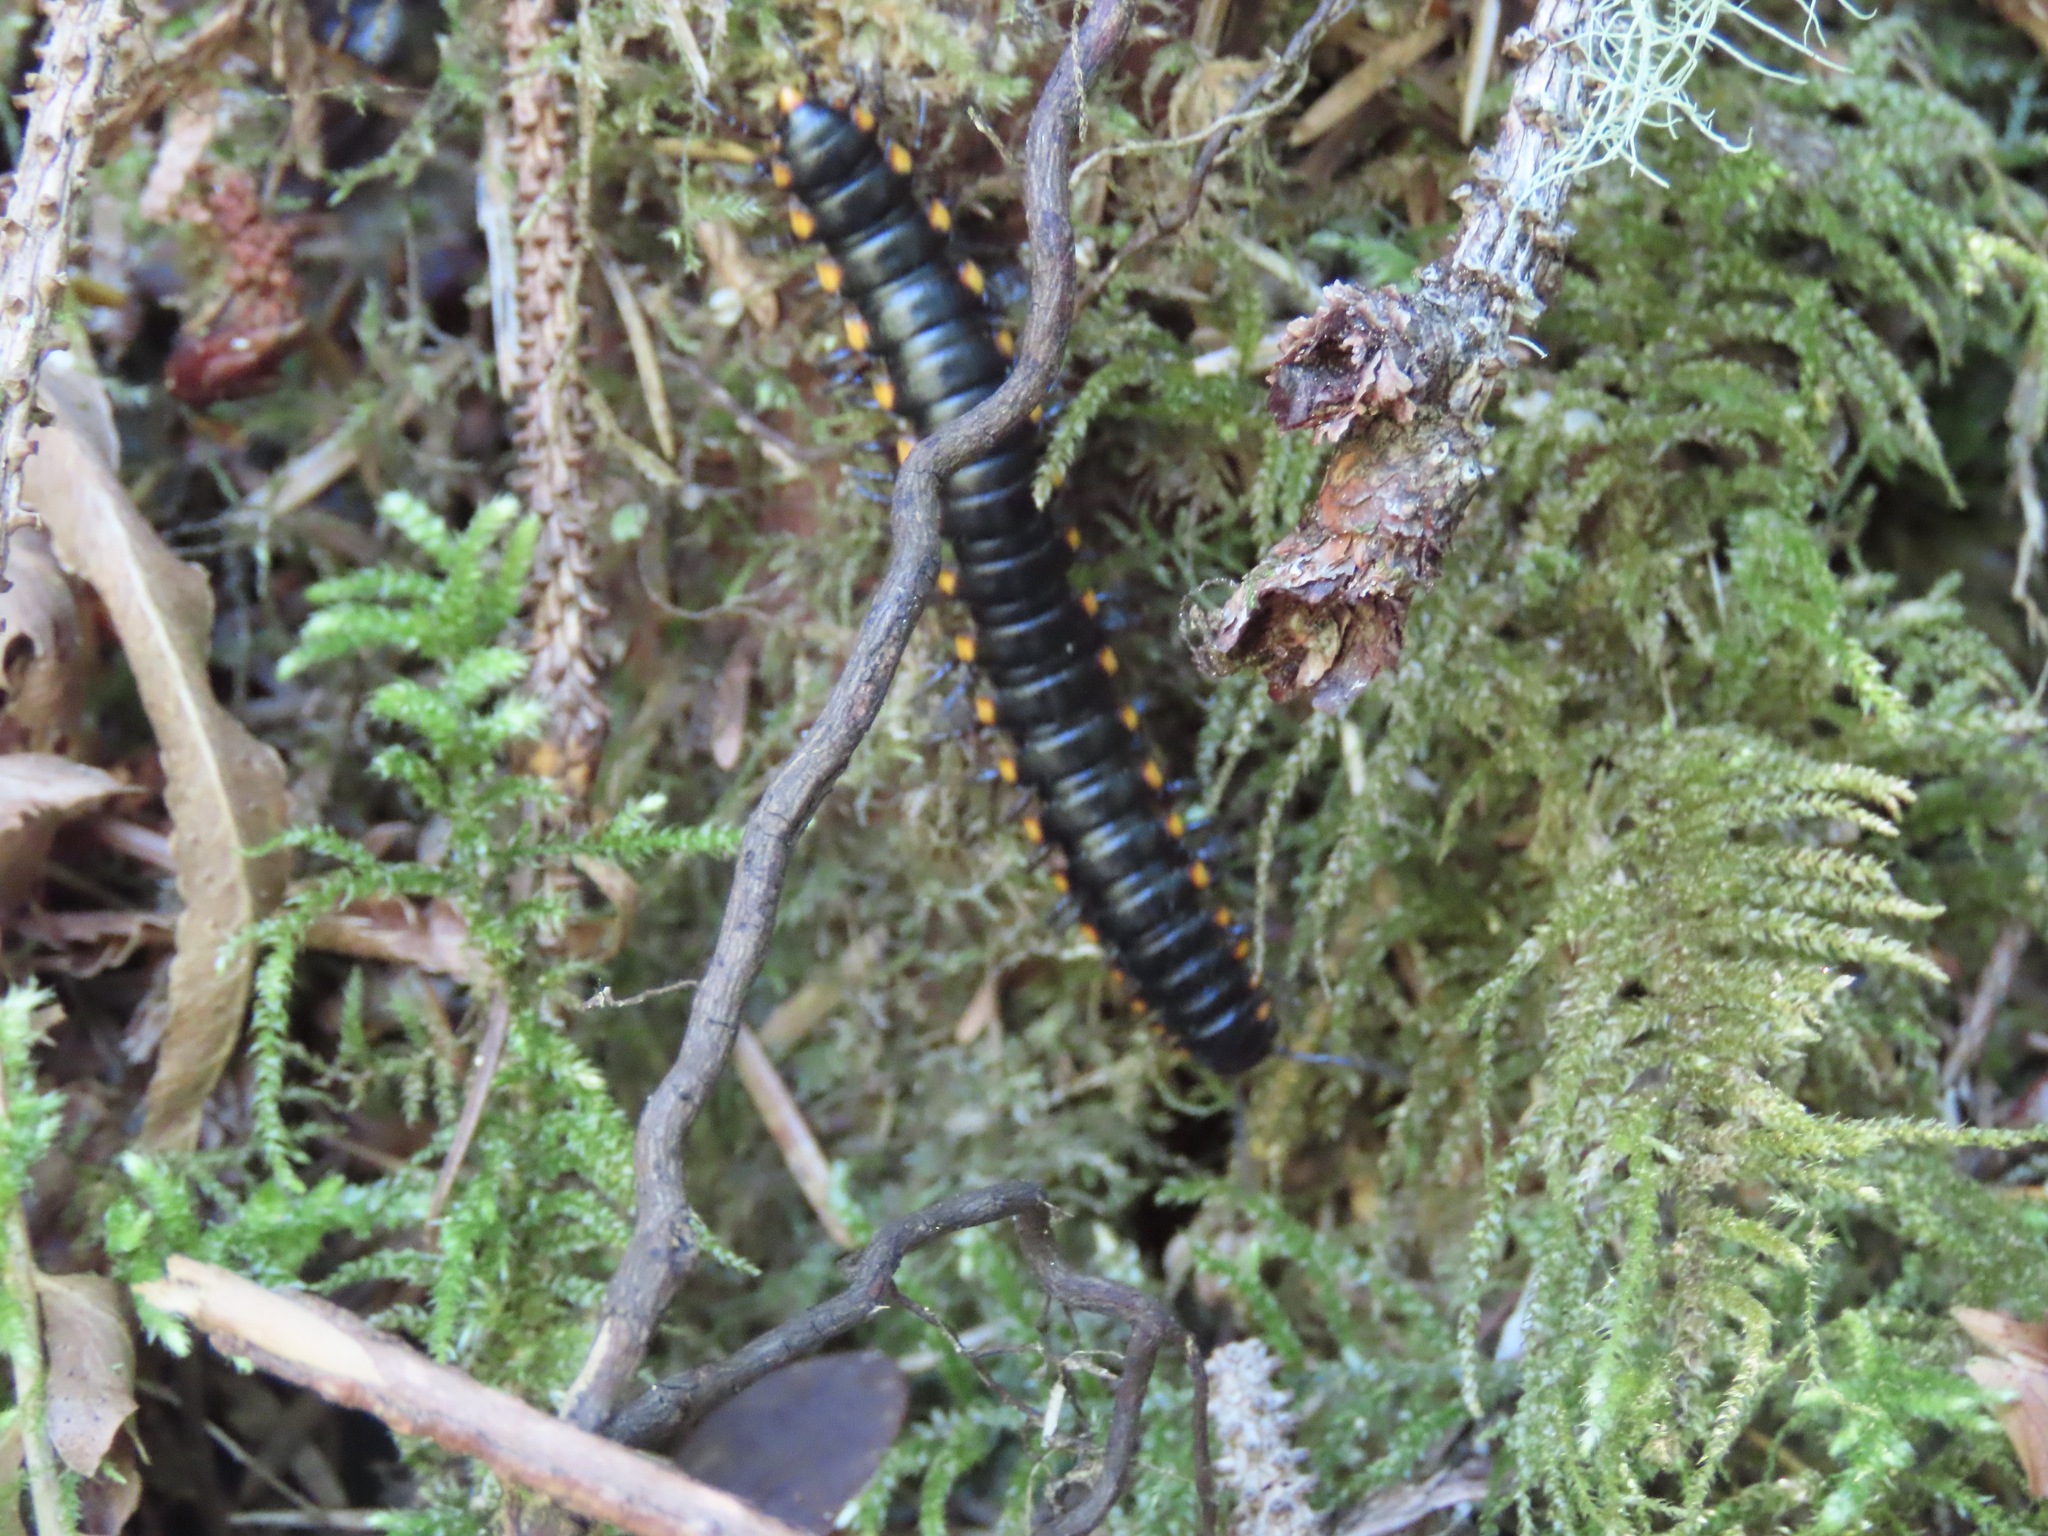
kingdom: Animalia
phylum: Arthropoda
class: Diplopoda
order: Polydesmida
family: Xystodesmidae
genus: Harpaphe
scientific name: Harpaphe haydeniana
